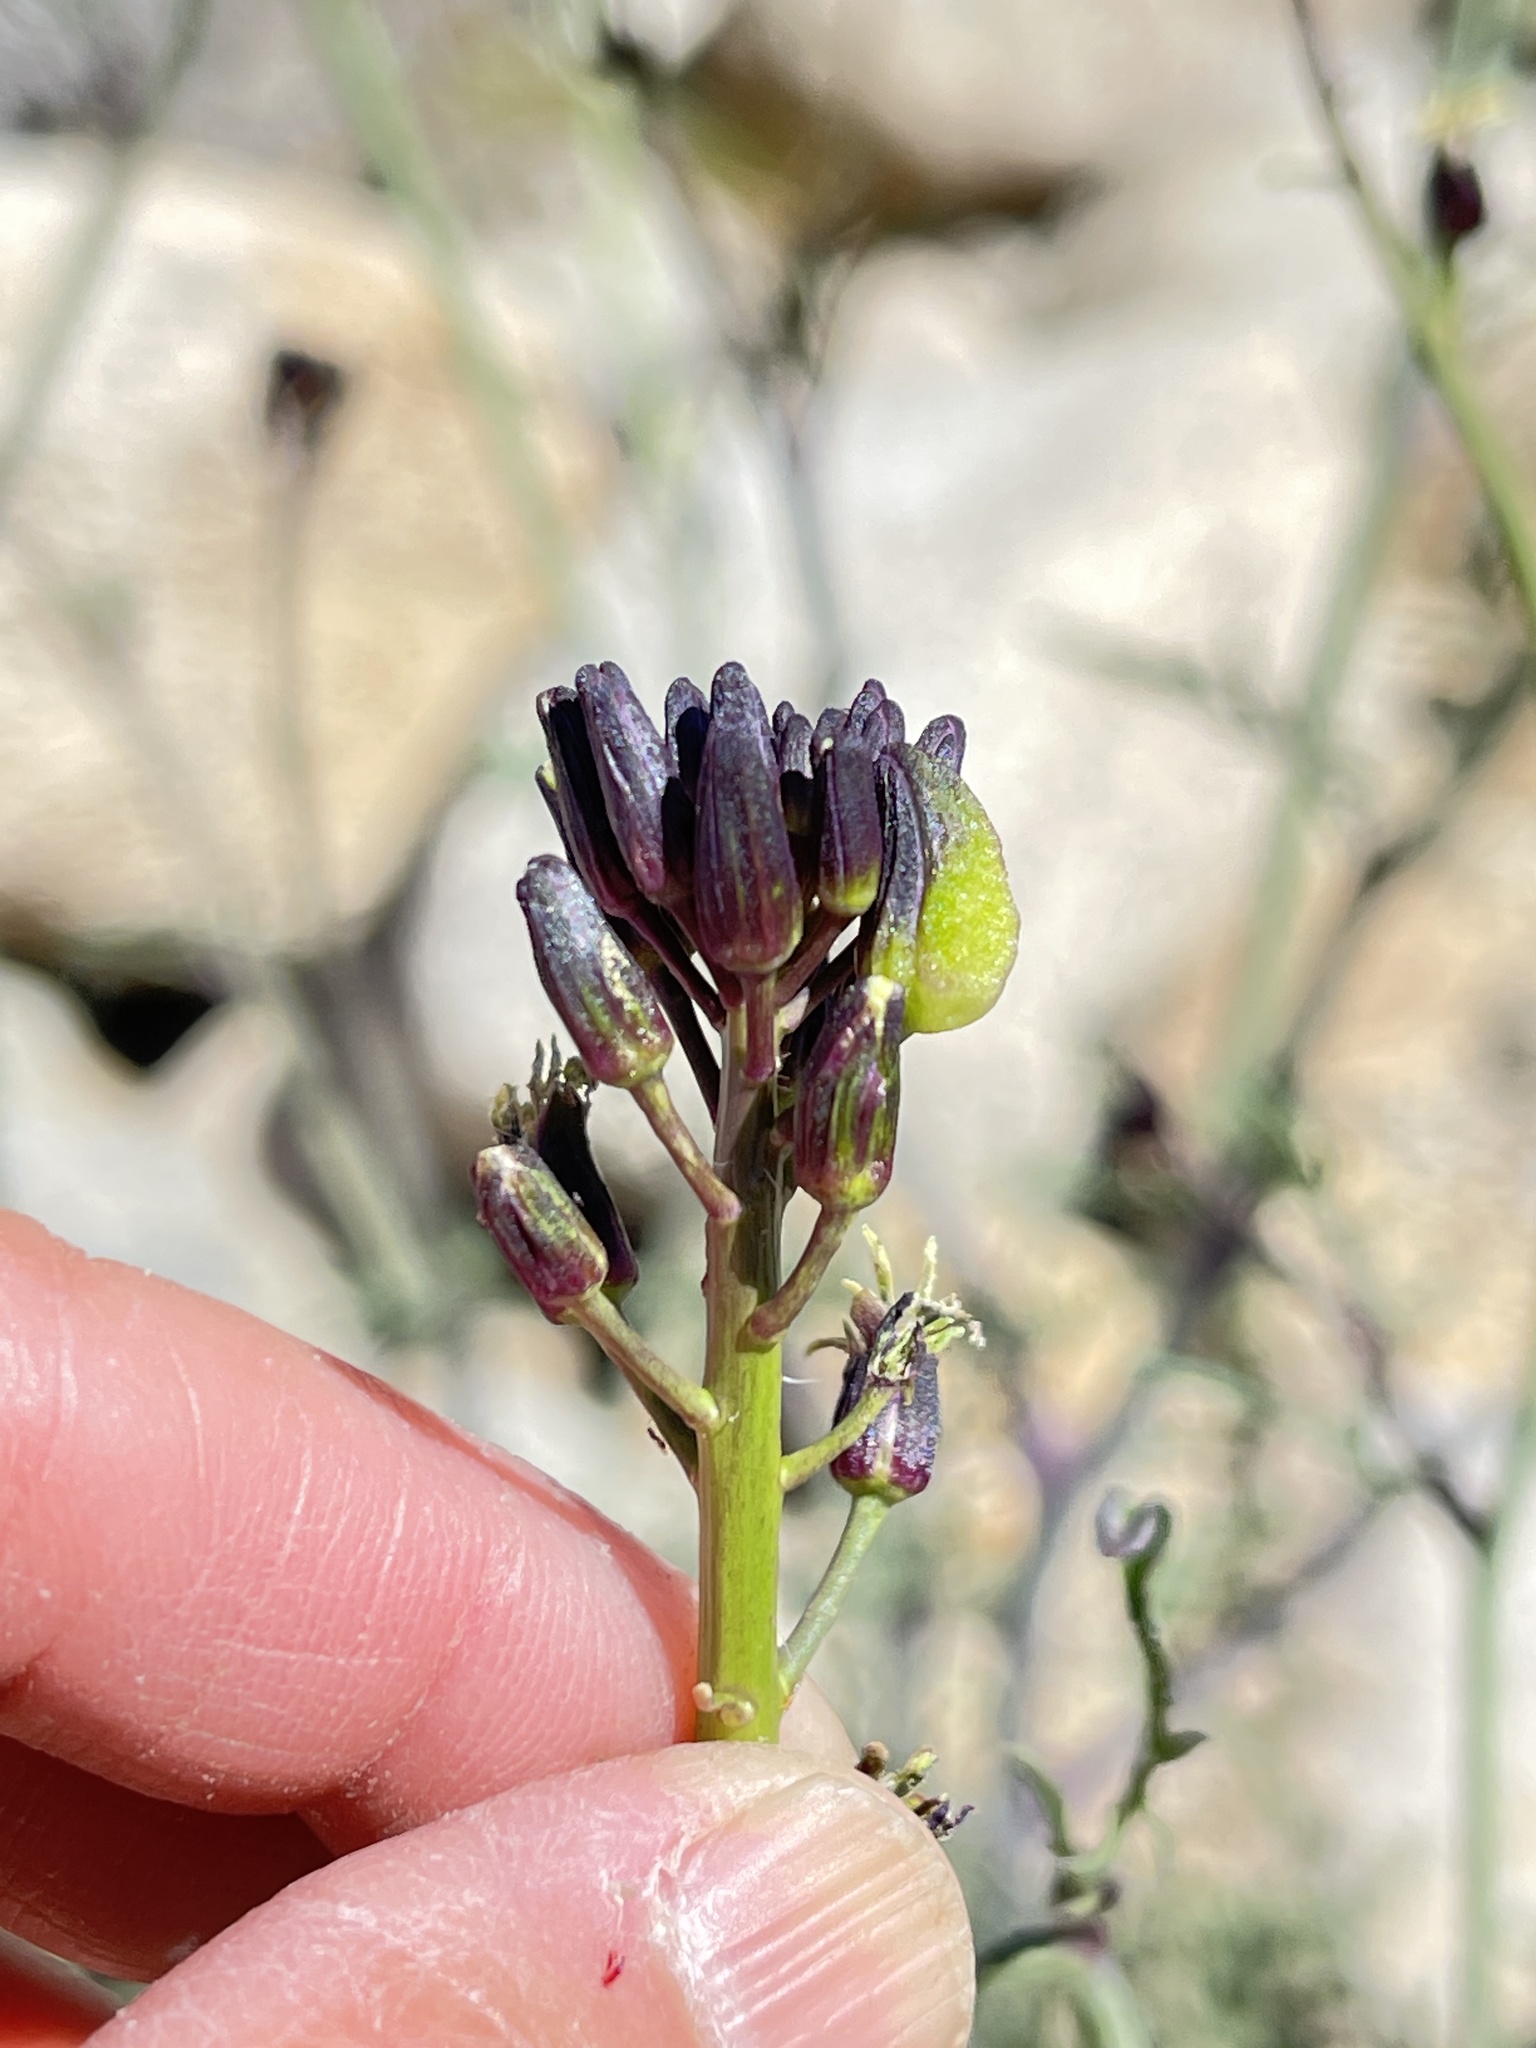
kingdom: Plantae
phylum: Tracheophyta
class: Magnoliopsida
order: Brassicales
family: Brassicaceae
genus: Streptanthus
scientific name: Streptanthus pilosus
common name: Chocolate drops
